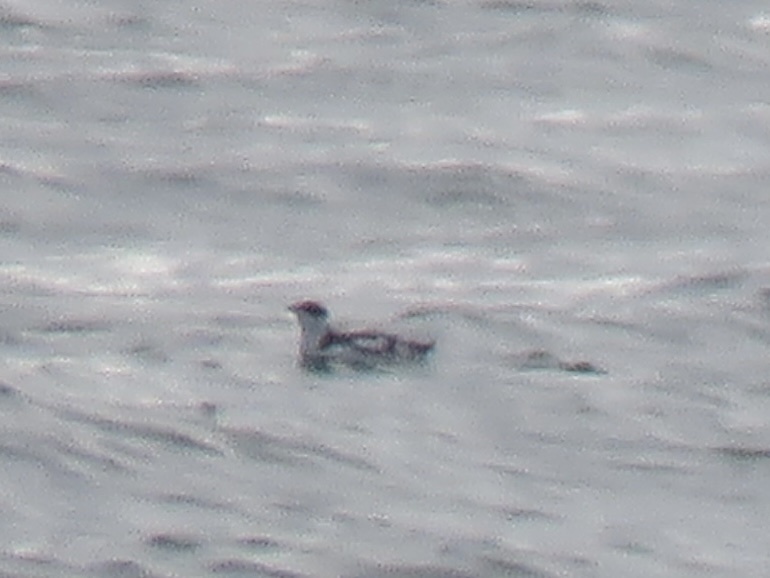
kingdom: Animalia
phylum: Chordata
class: Aves
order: Charadriiformes
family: Alcidae
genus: Brachyramphus
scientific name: Brachyramphus marmoratus
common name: Marbled murrelet
